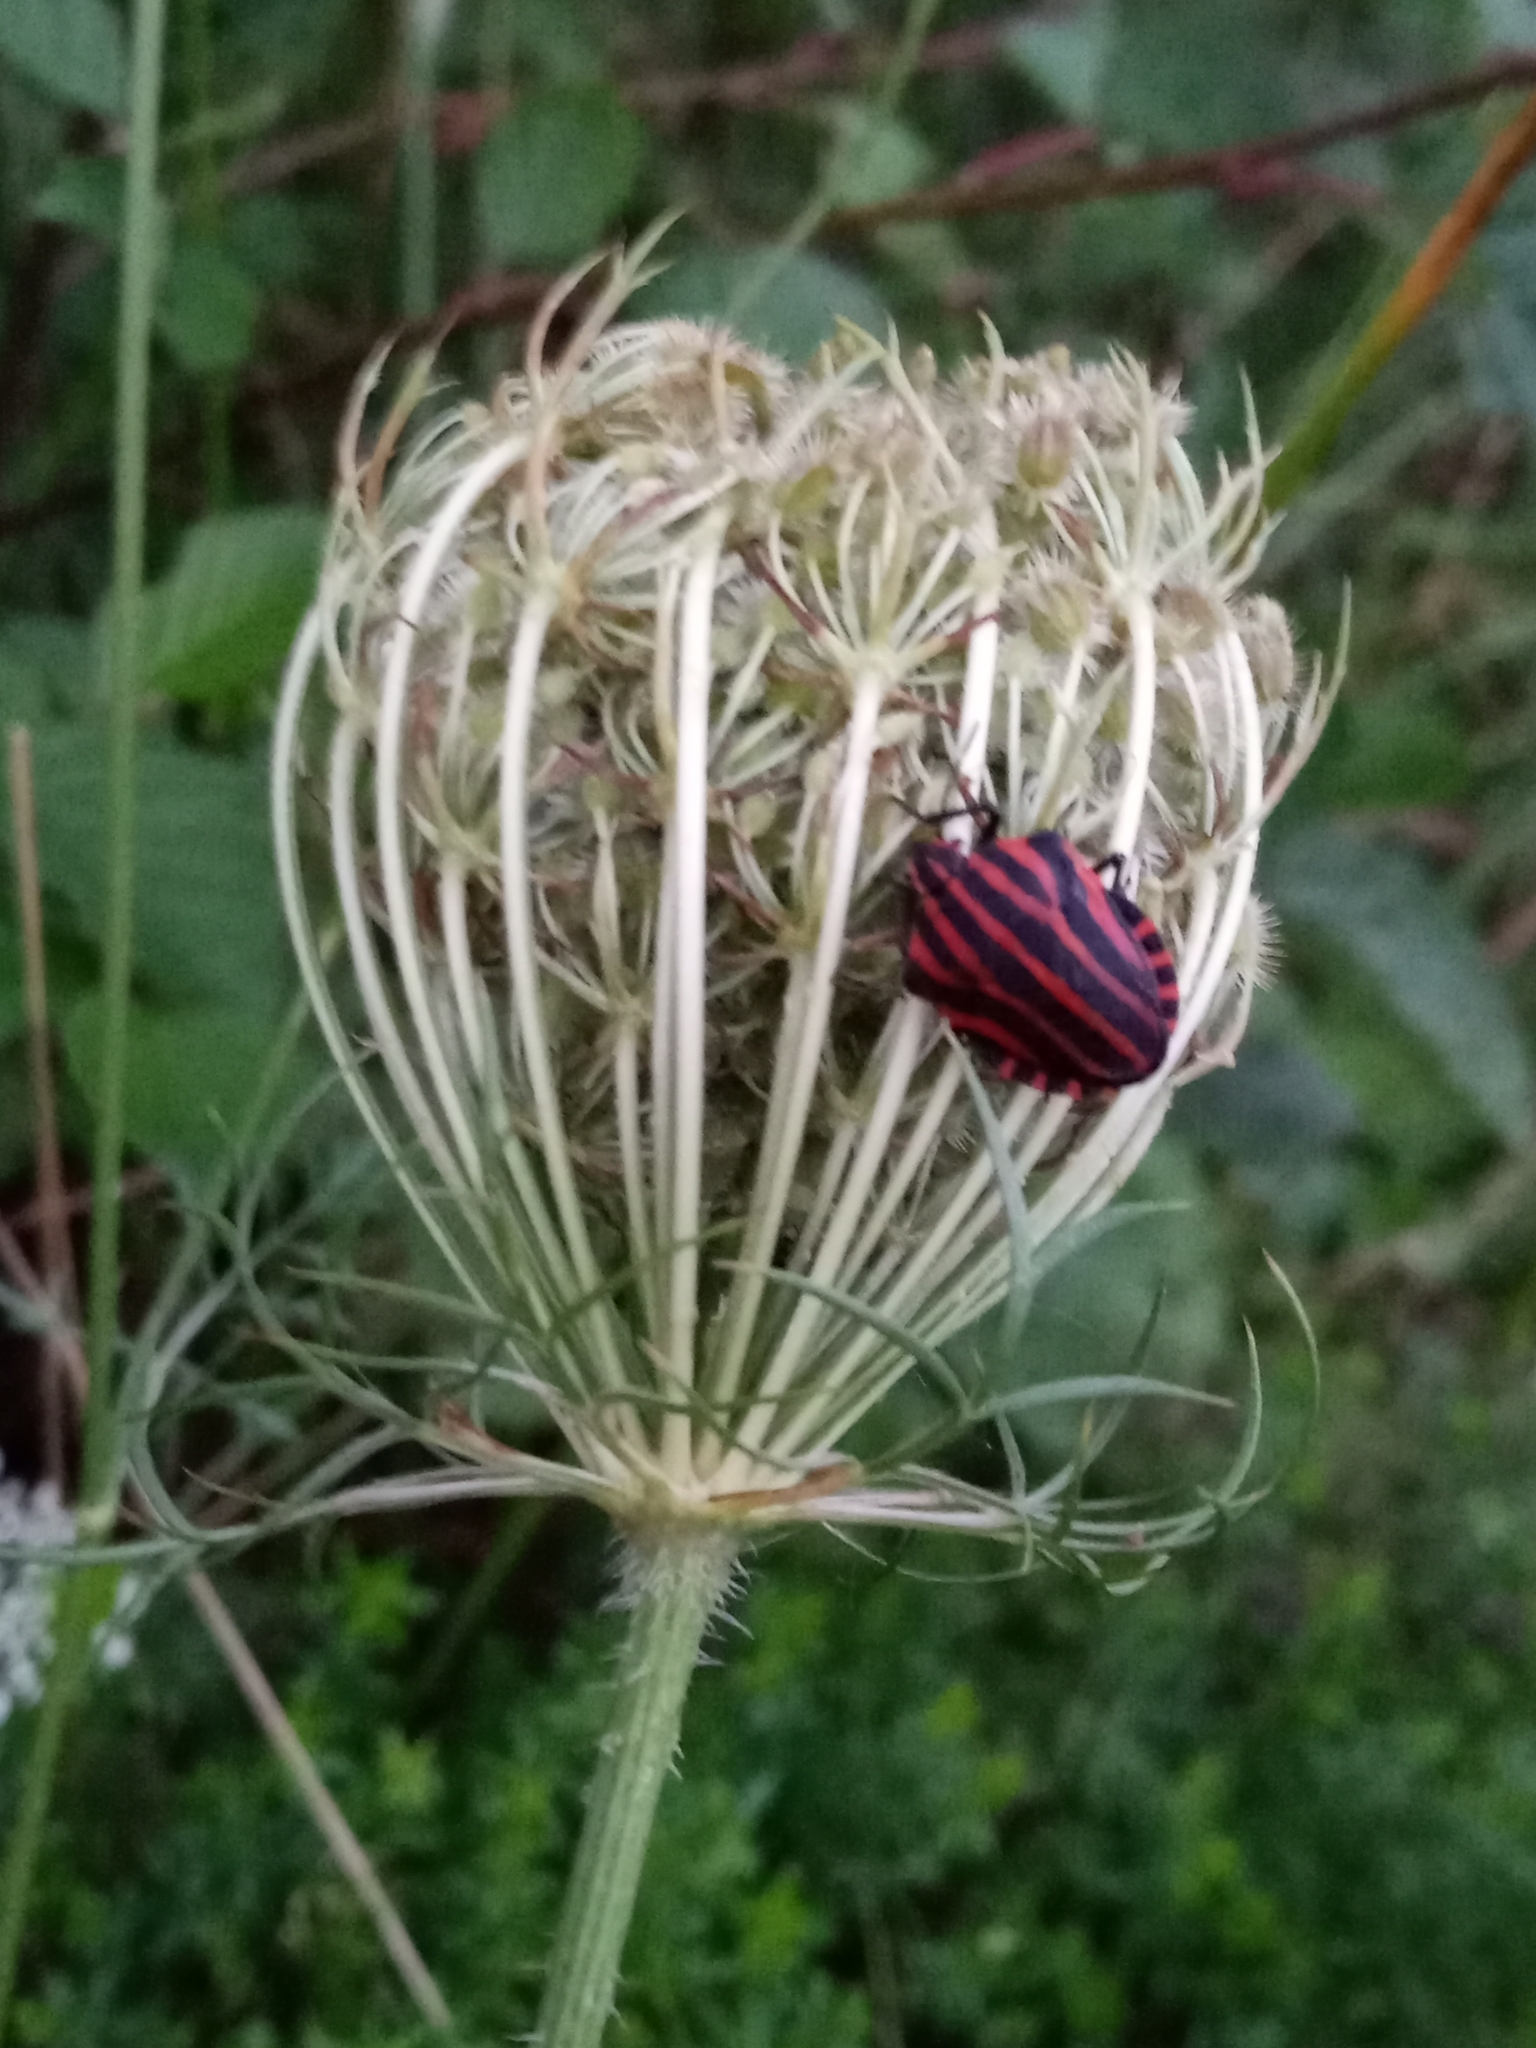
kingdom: Animalia
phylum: Arthropoda
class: Insecta
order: Hemiptera
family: Pentatomidae
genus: Graphosoma
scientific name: Graphosoma italicum
